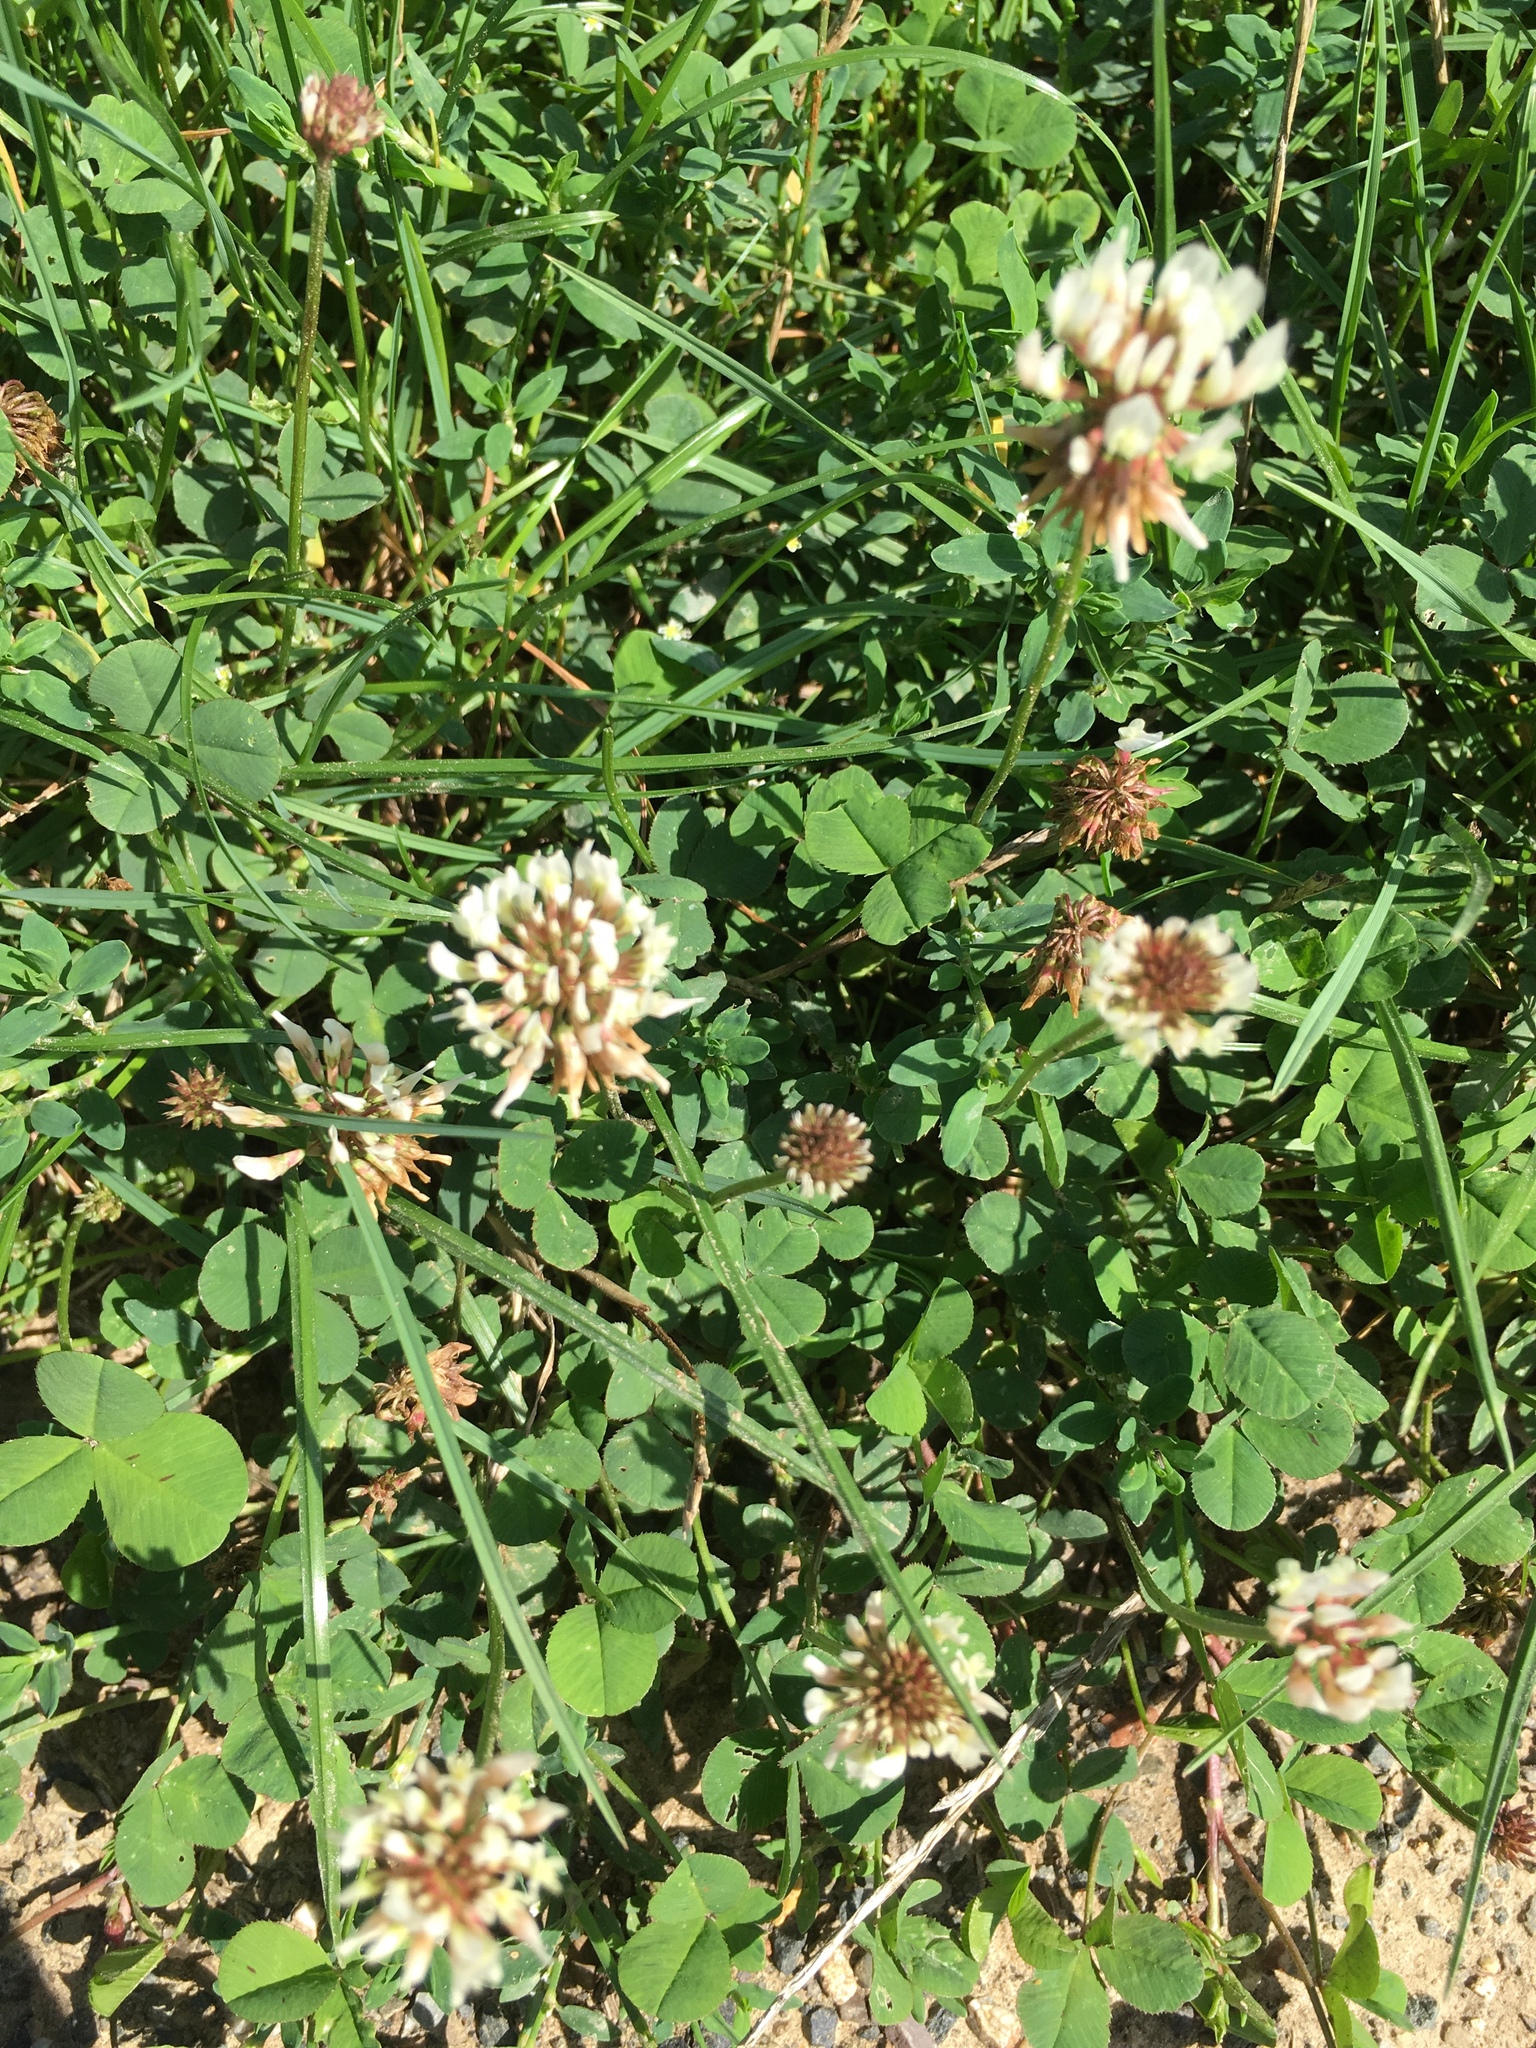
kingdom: Plantae
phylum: Tracheophyta
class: Magnoliopsida
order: Fabales
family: Fabaceae
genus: Trifolium
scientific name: Trifolium repens
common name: White clover
